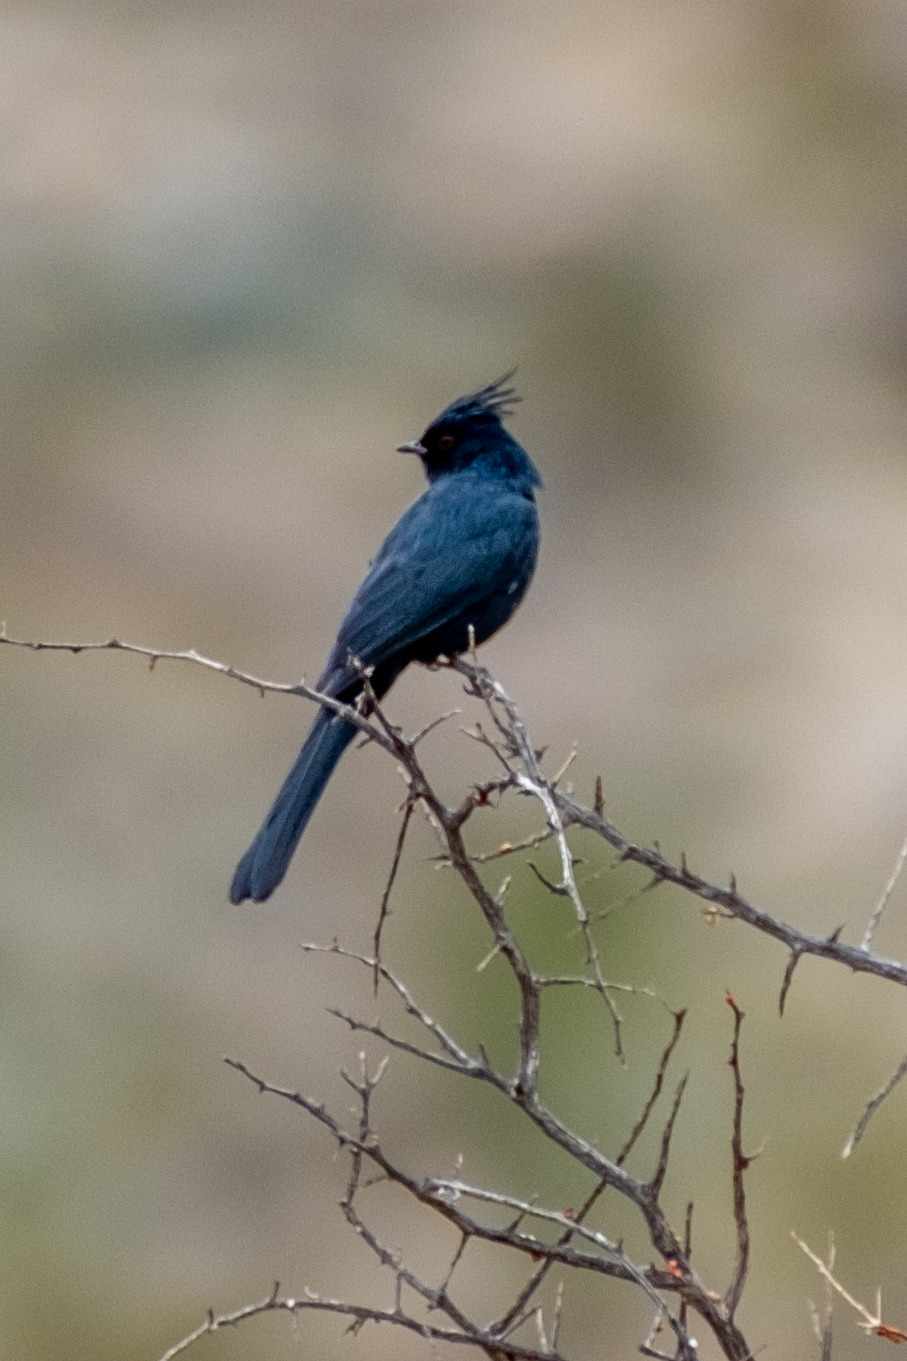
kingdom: Animalia
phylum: Chordata
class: Aves
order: Passeriformes
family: Ptilogonatidae
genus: Phainopepla
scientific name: Phainopepla nitens
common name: Phainopepla
